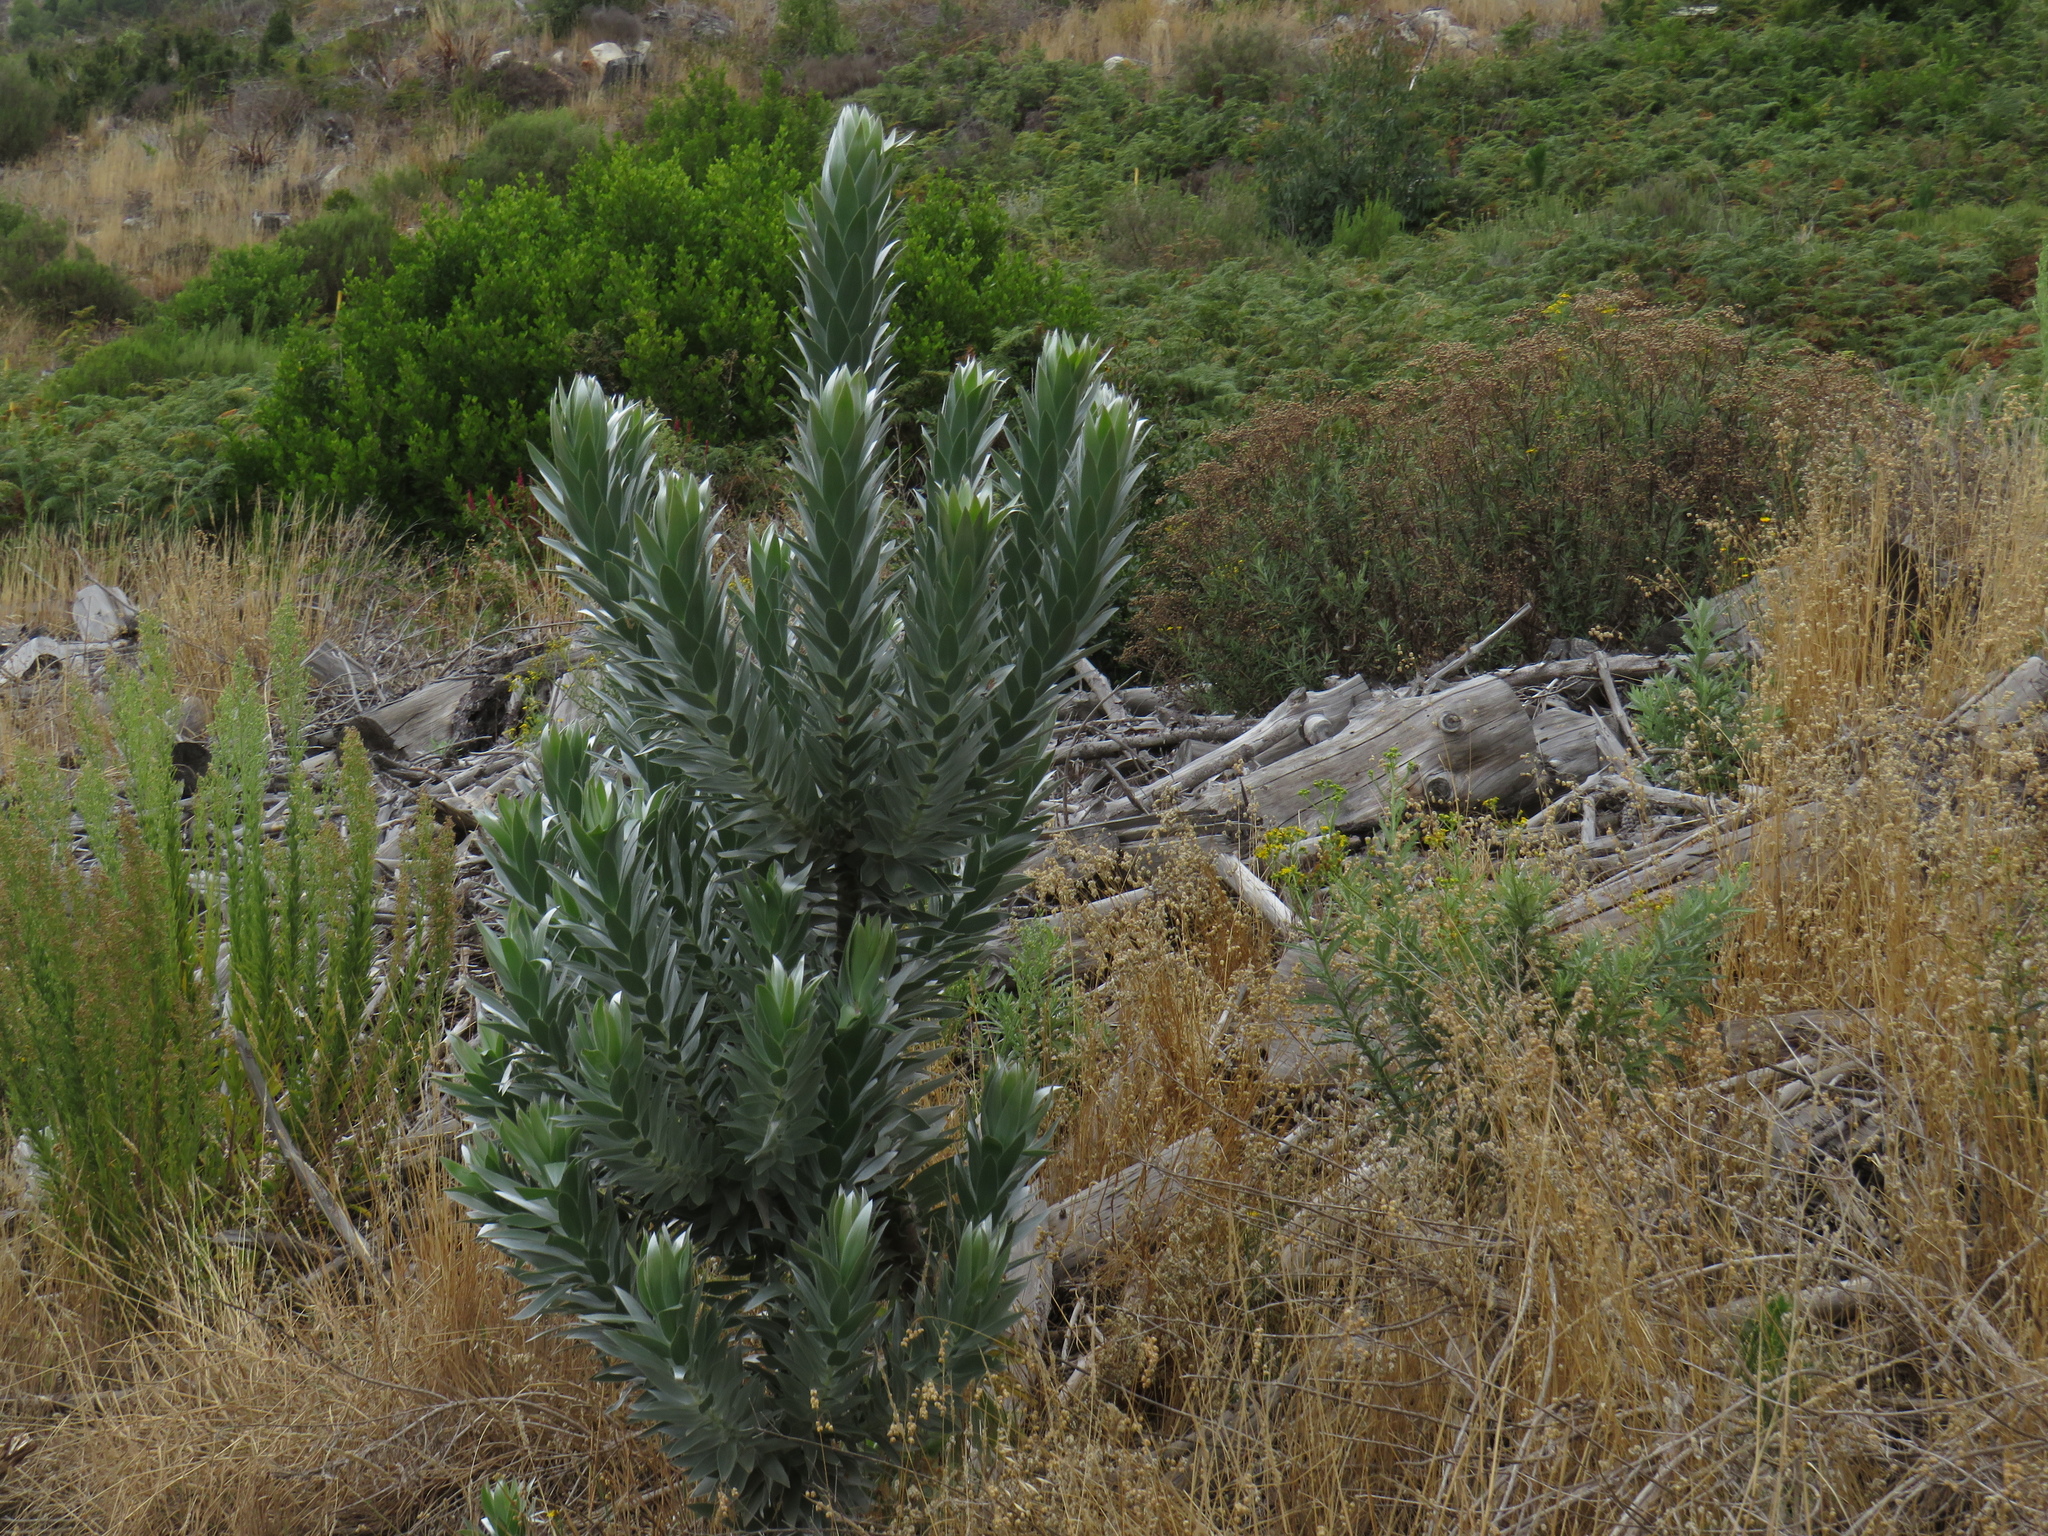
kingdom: Plantae
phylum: Tracheophyta
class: Magnoliopsida
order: Proteales
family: Proteaceae
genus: Leucadendron
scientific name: Leucadendron argenteum
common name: Cape silver tree
